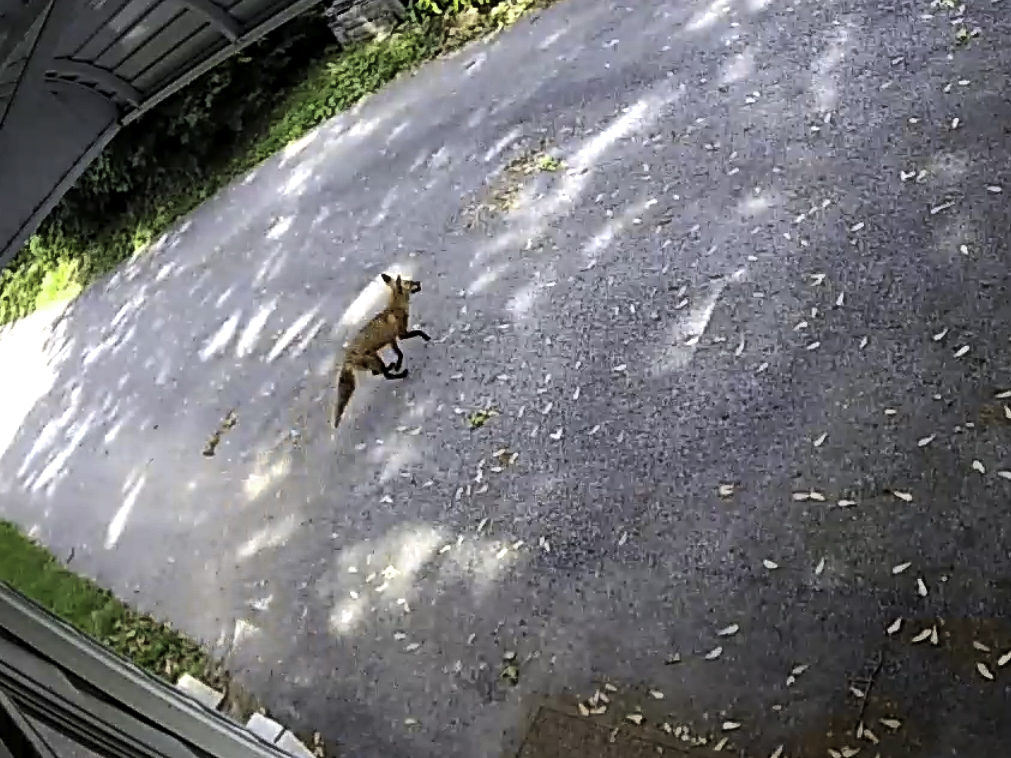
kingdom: Animalia
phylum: Chordata
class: Mammalia
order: Carnivora
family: Canidae
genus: Vulpes
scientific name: Vulpes vulpes
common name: Red fox
